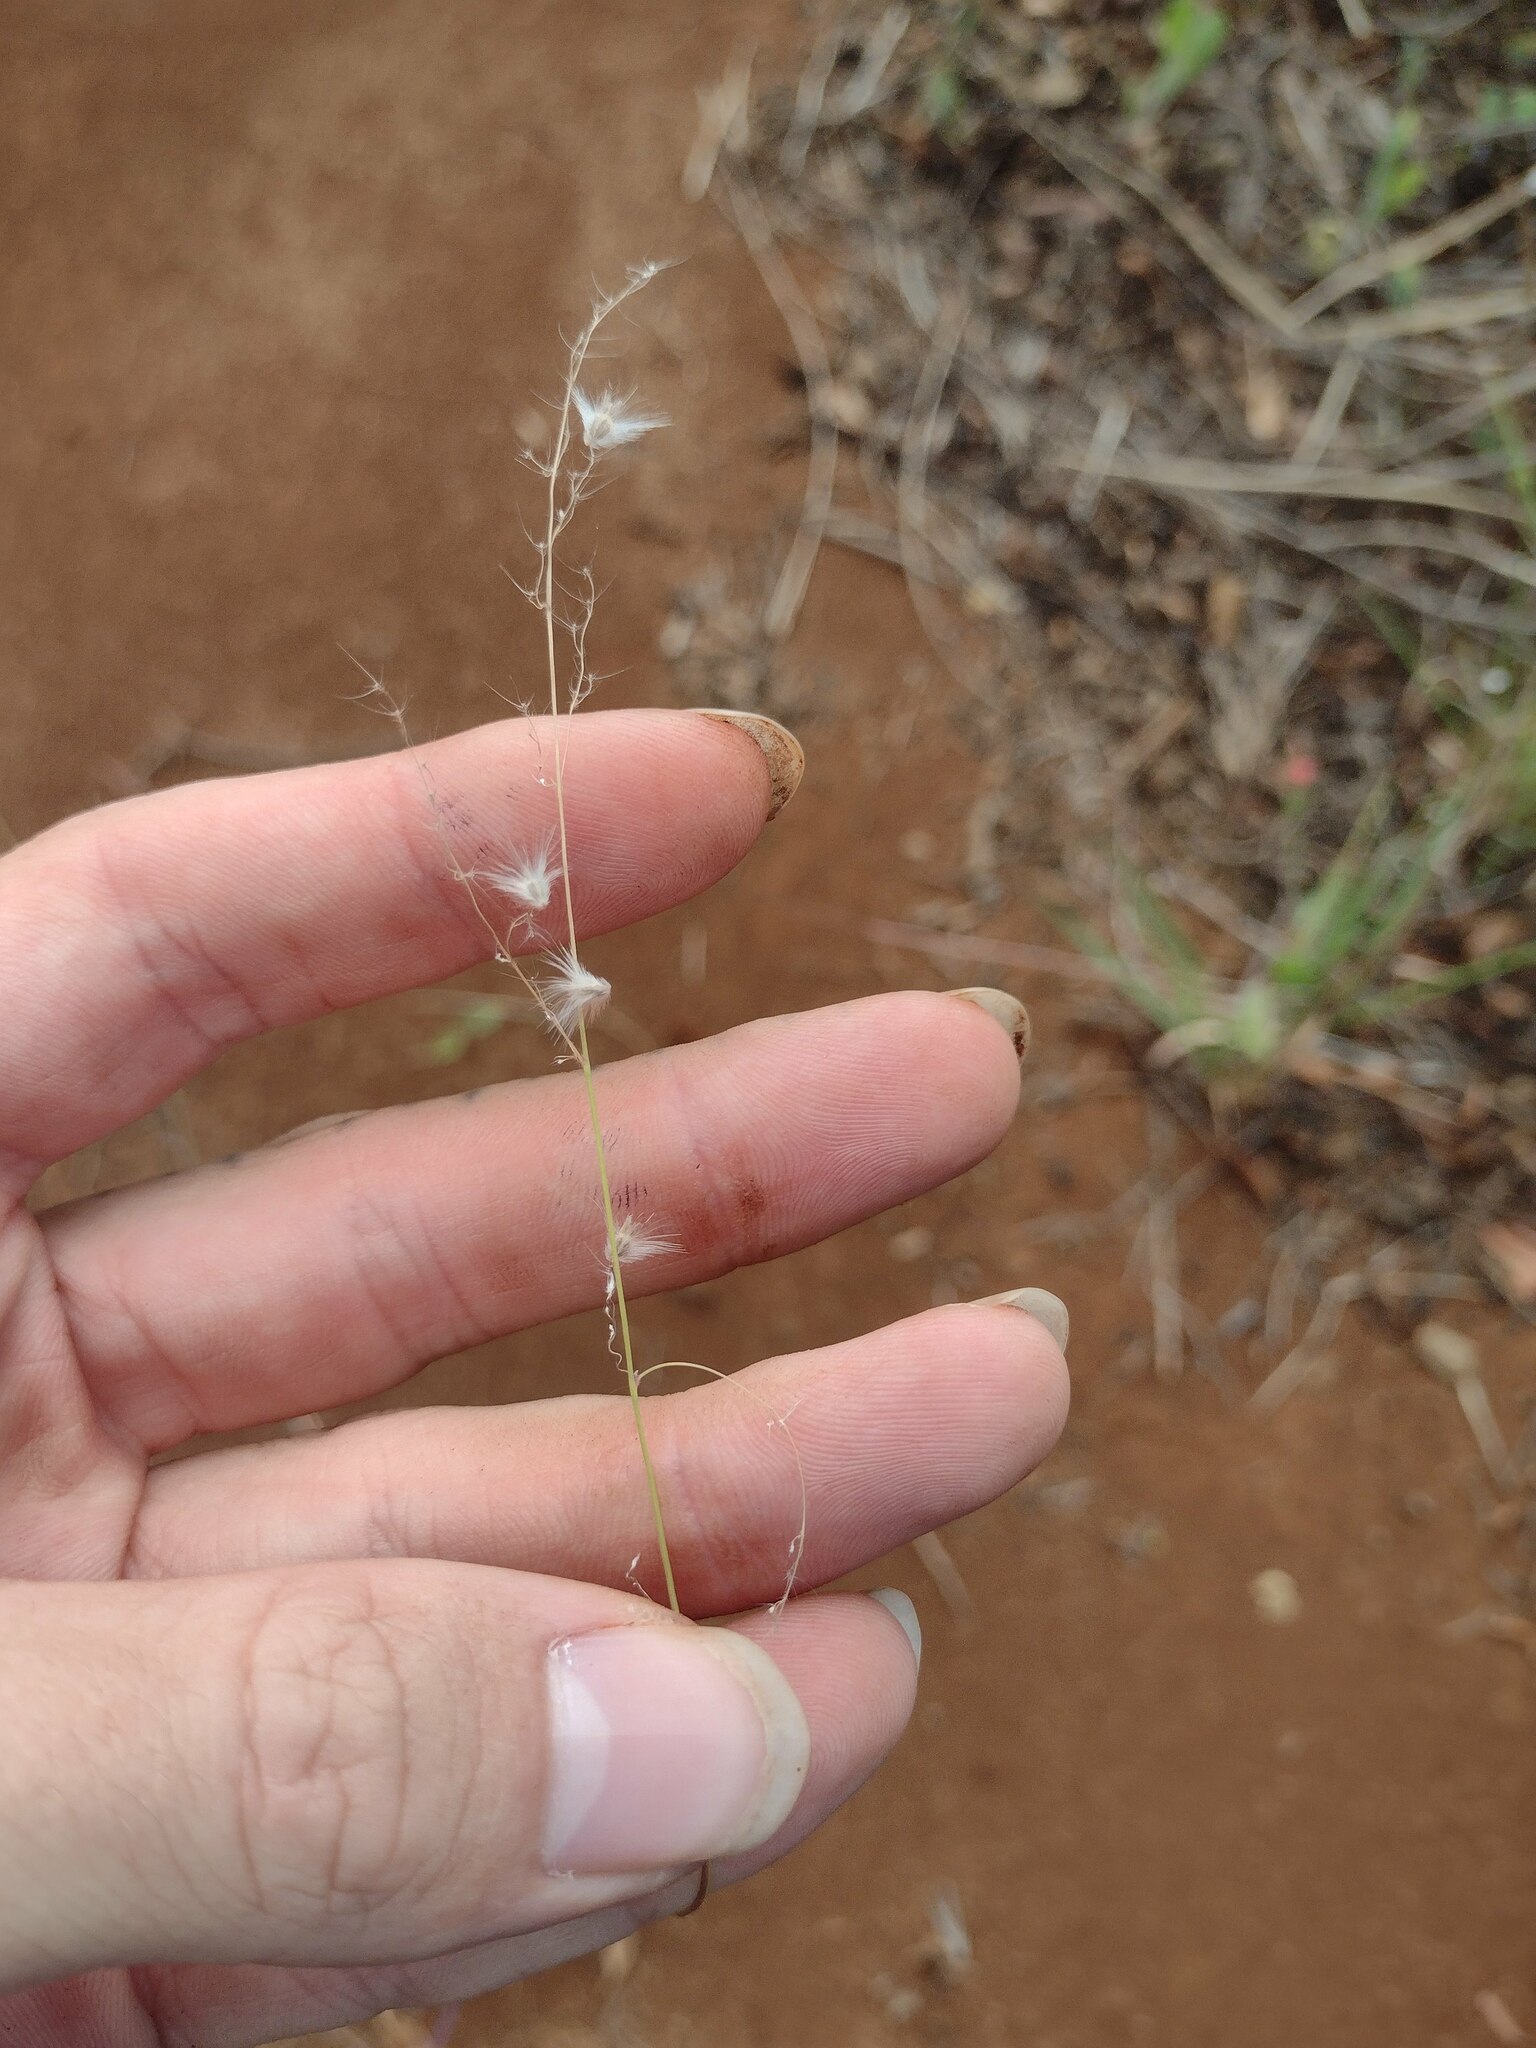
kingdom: Plantae
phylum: Tracheophyta
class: Liliopsida
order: Poales
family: Poaceae
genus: Melinis
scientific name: Melinis repens
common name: Rose natal grass
